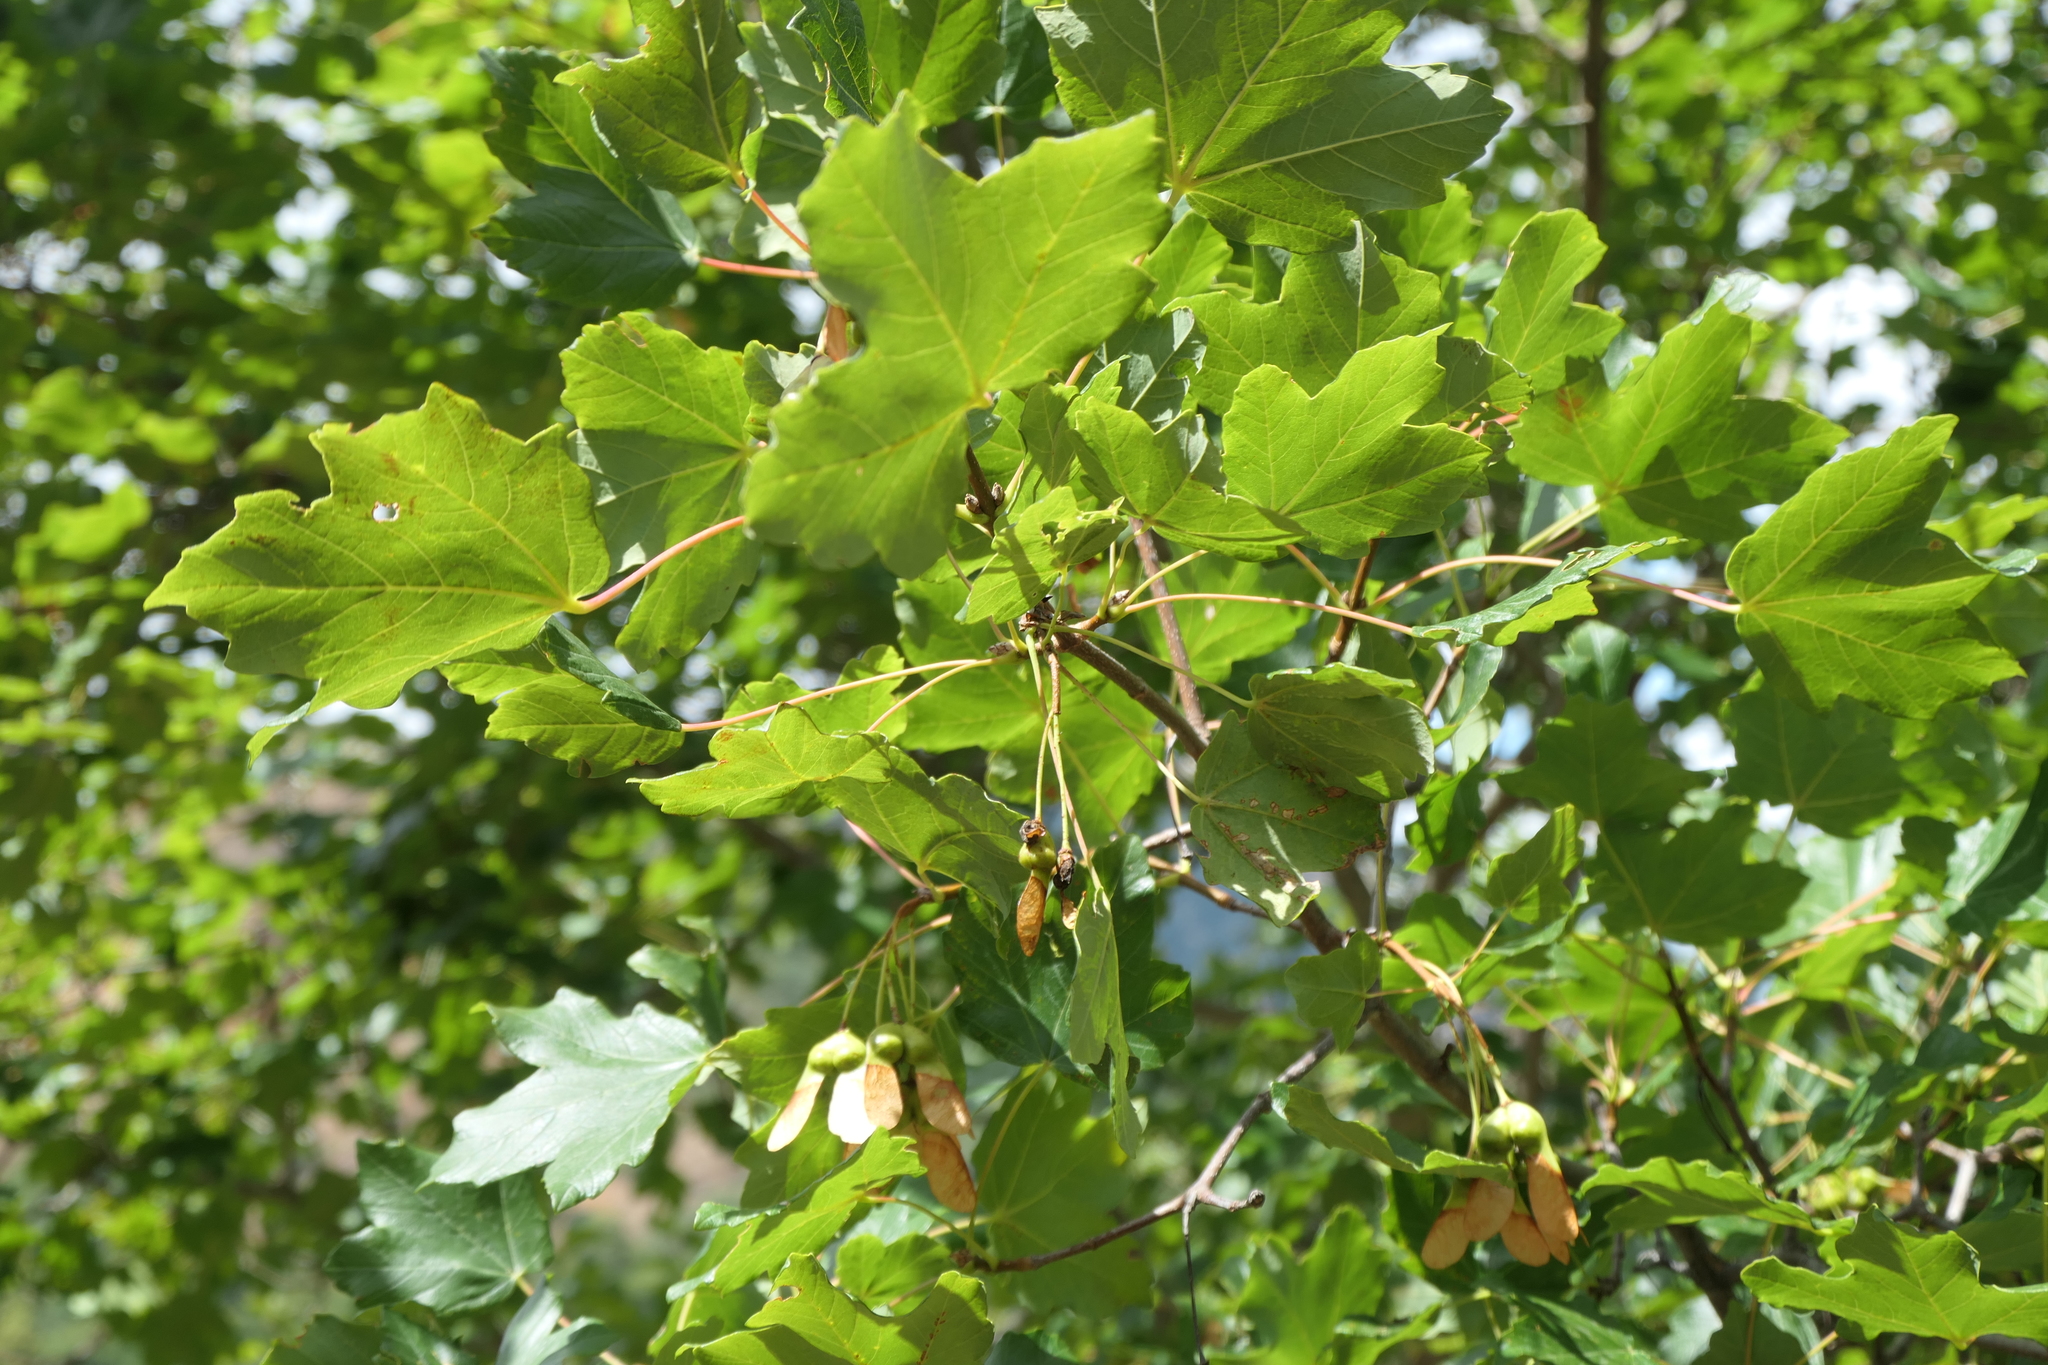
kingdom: Plantae
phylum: Tracheophyta
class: Magnoliopsida
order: Sapindales
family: Sapindaceae
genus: Acer
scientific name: Acer opalus
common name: Italian maple
